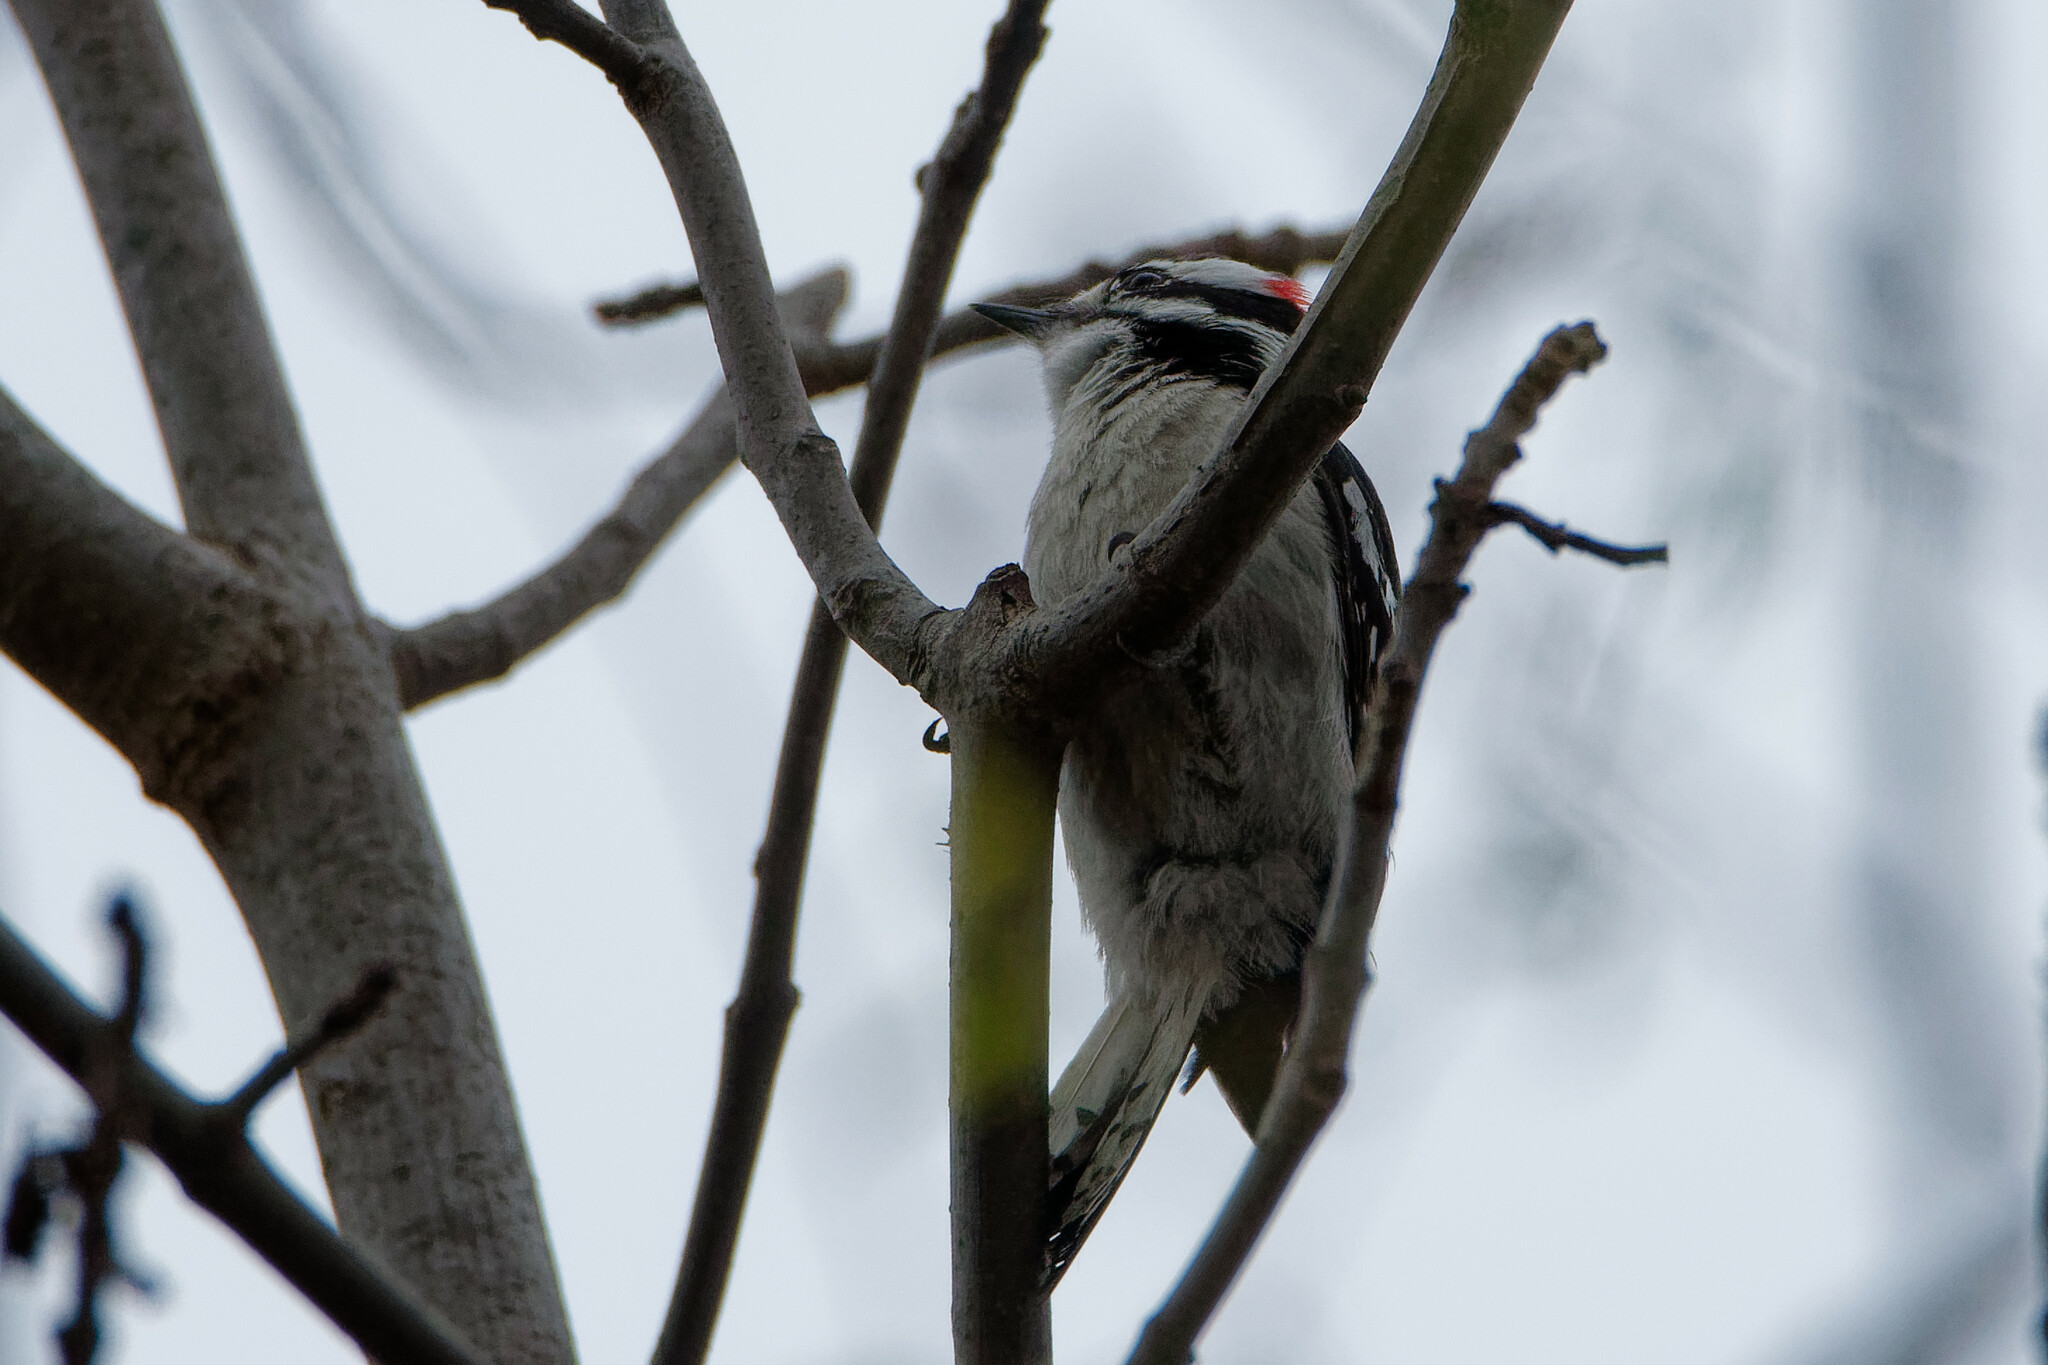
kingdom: Animalia
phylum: Chordata
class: Aves
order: Piciformes
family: Picidae
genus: Dryobates
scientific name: Dryobates pubescens
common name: Downy woodpecker
